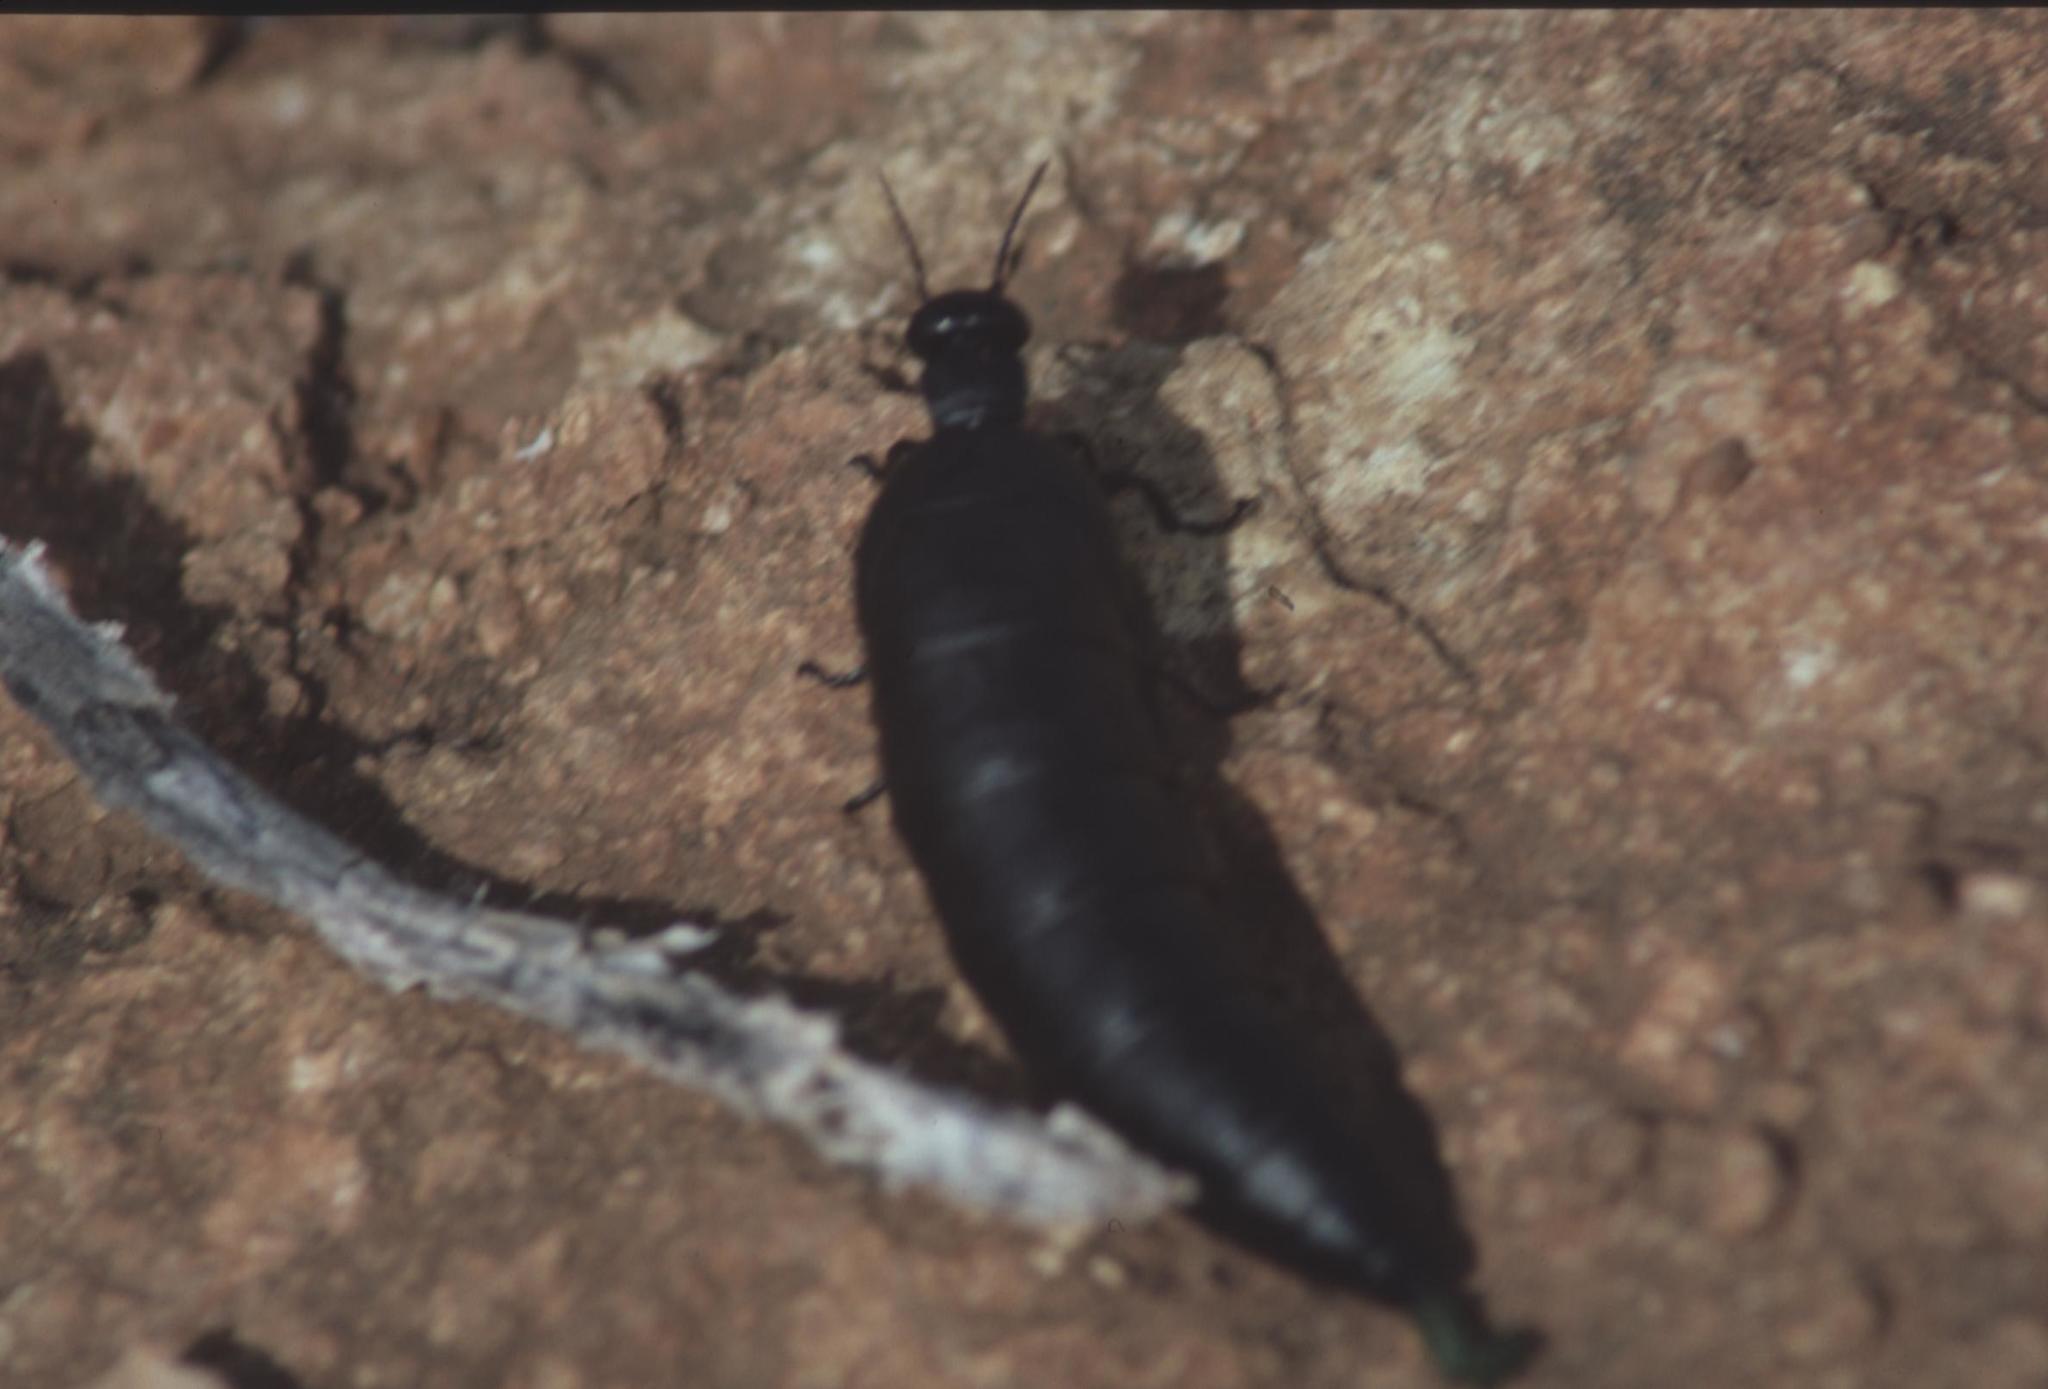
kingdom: Animalia
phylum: Arthropoda
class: Insecta
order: Coleoptera
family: Meloidae
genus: Berberomeloe
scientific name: Berberomeloe castuo
